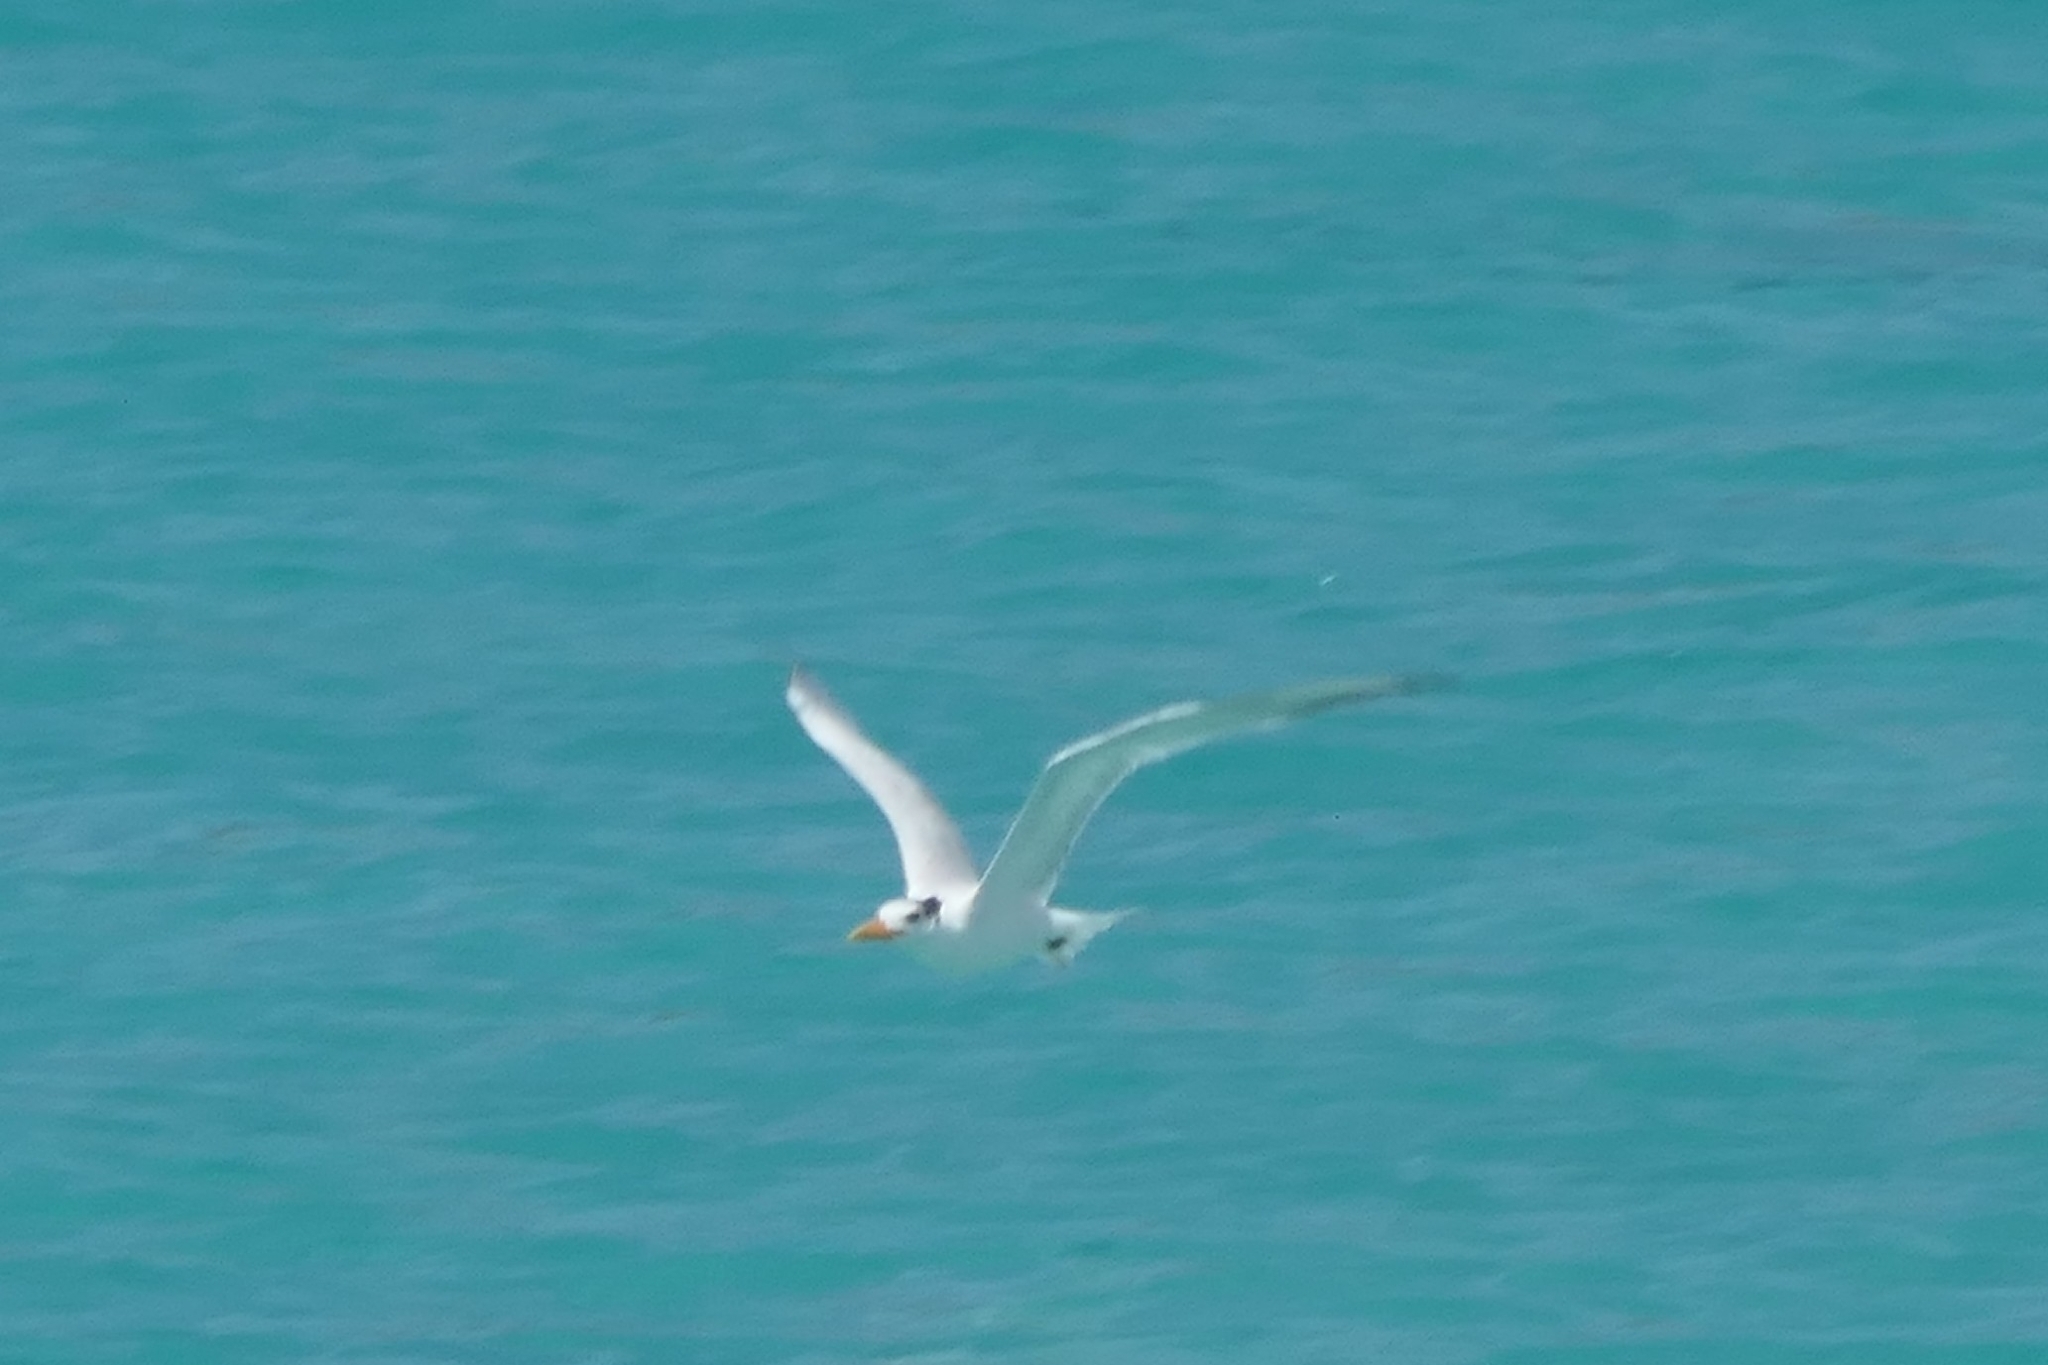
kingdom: Animalia
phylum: Chordata
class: Aves
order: Charadriiformes
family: Laridae
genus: Thalasseus
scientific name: Thalasseus maximus
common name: Royal tern
